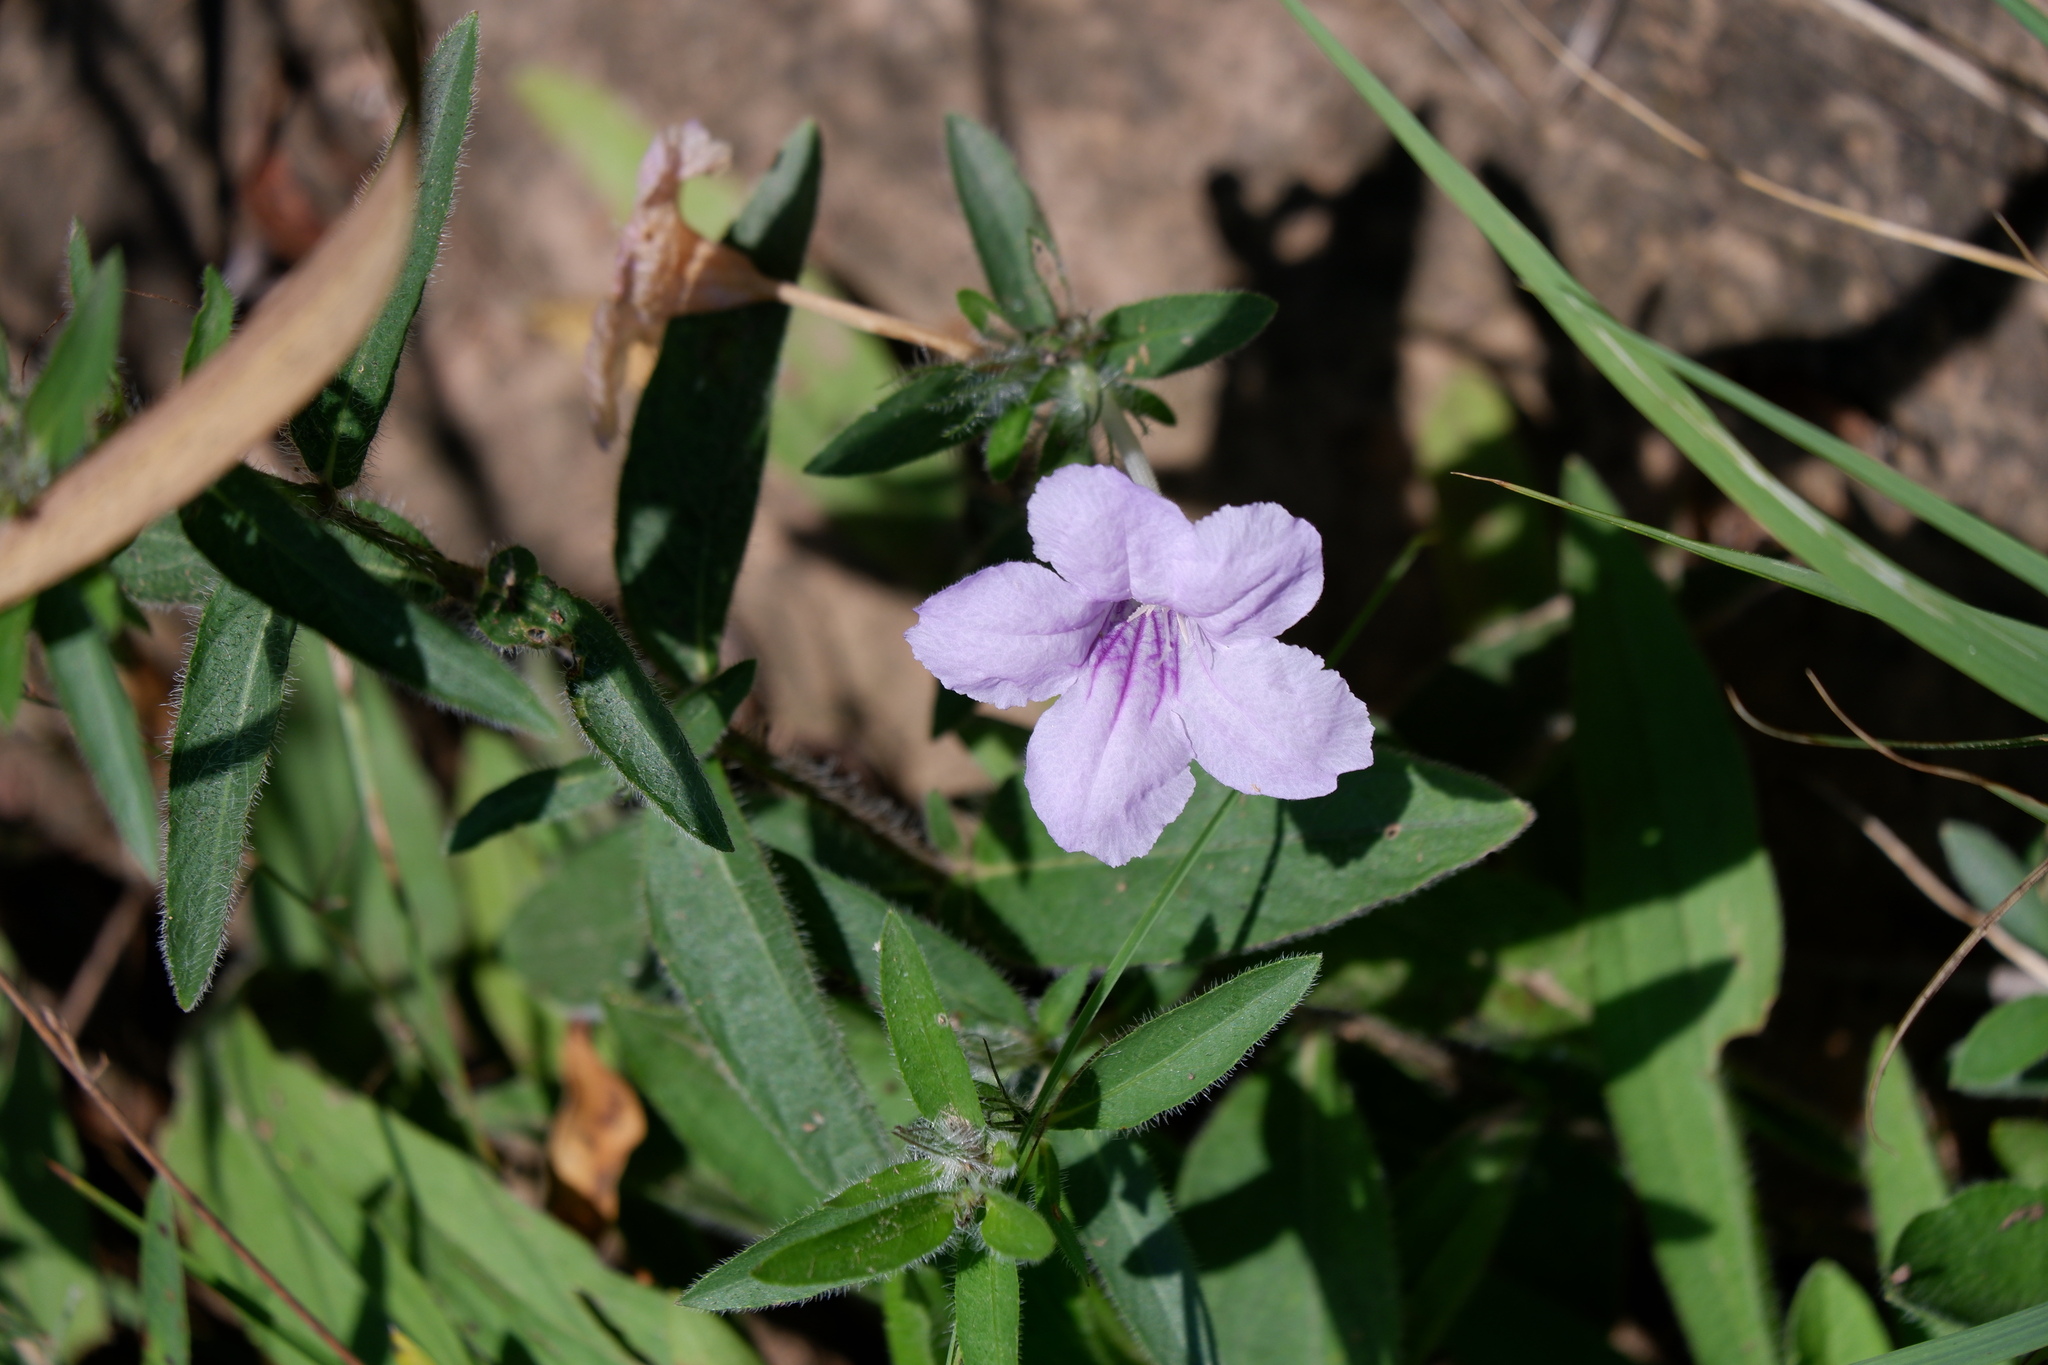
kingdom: Plantae
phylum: Tracheophyta
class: Magnoliopsida
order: Lamiales
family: Acanthaceae
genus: Ruellia
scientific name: Ruellia humilis
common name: Fringe-leaf ruellia
